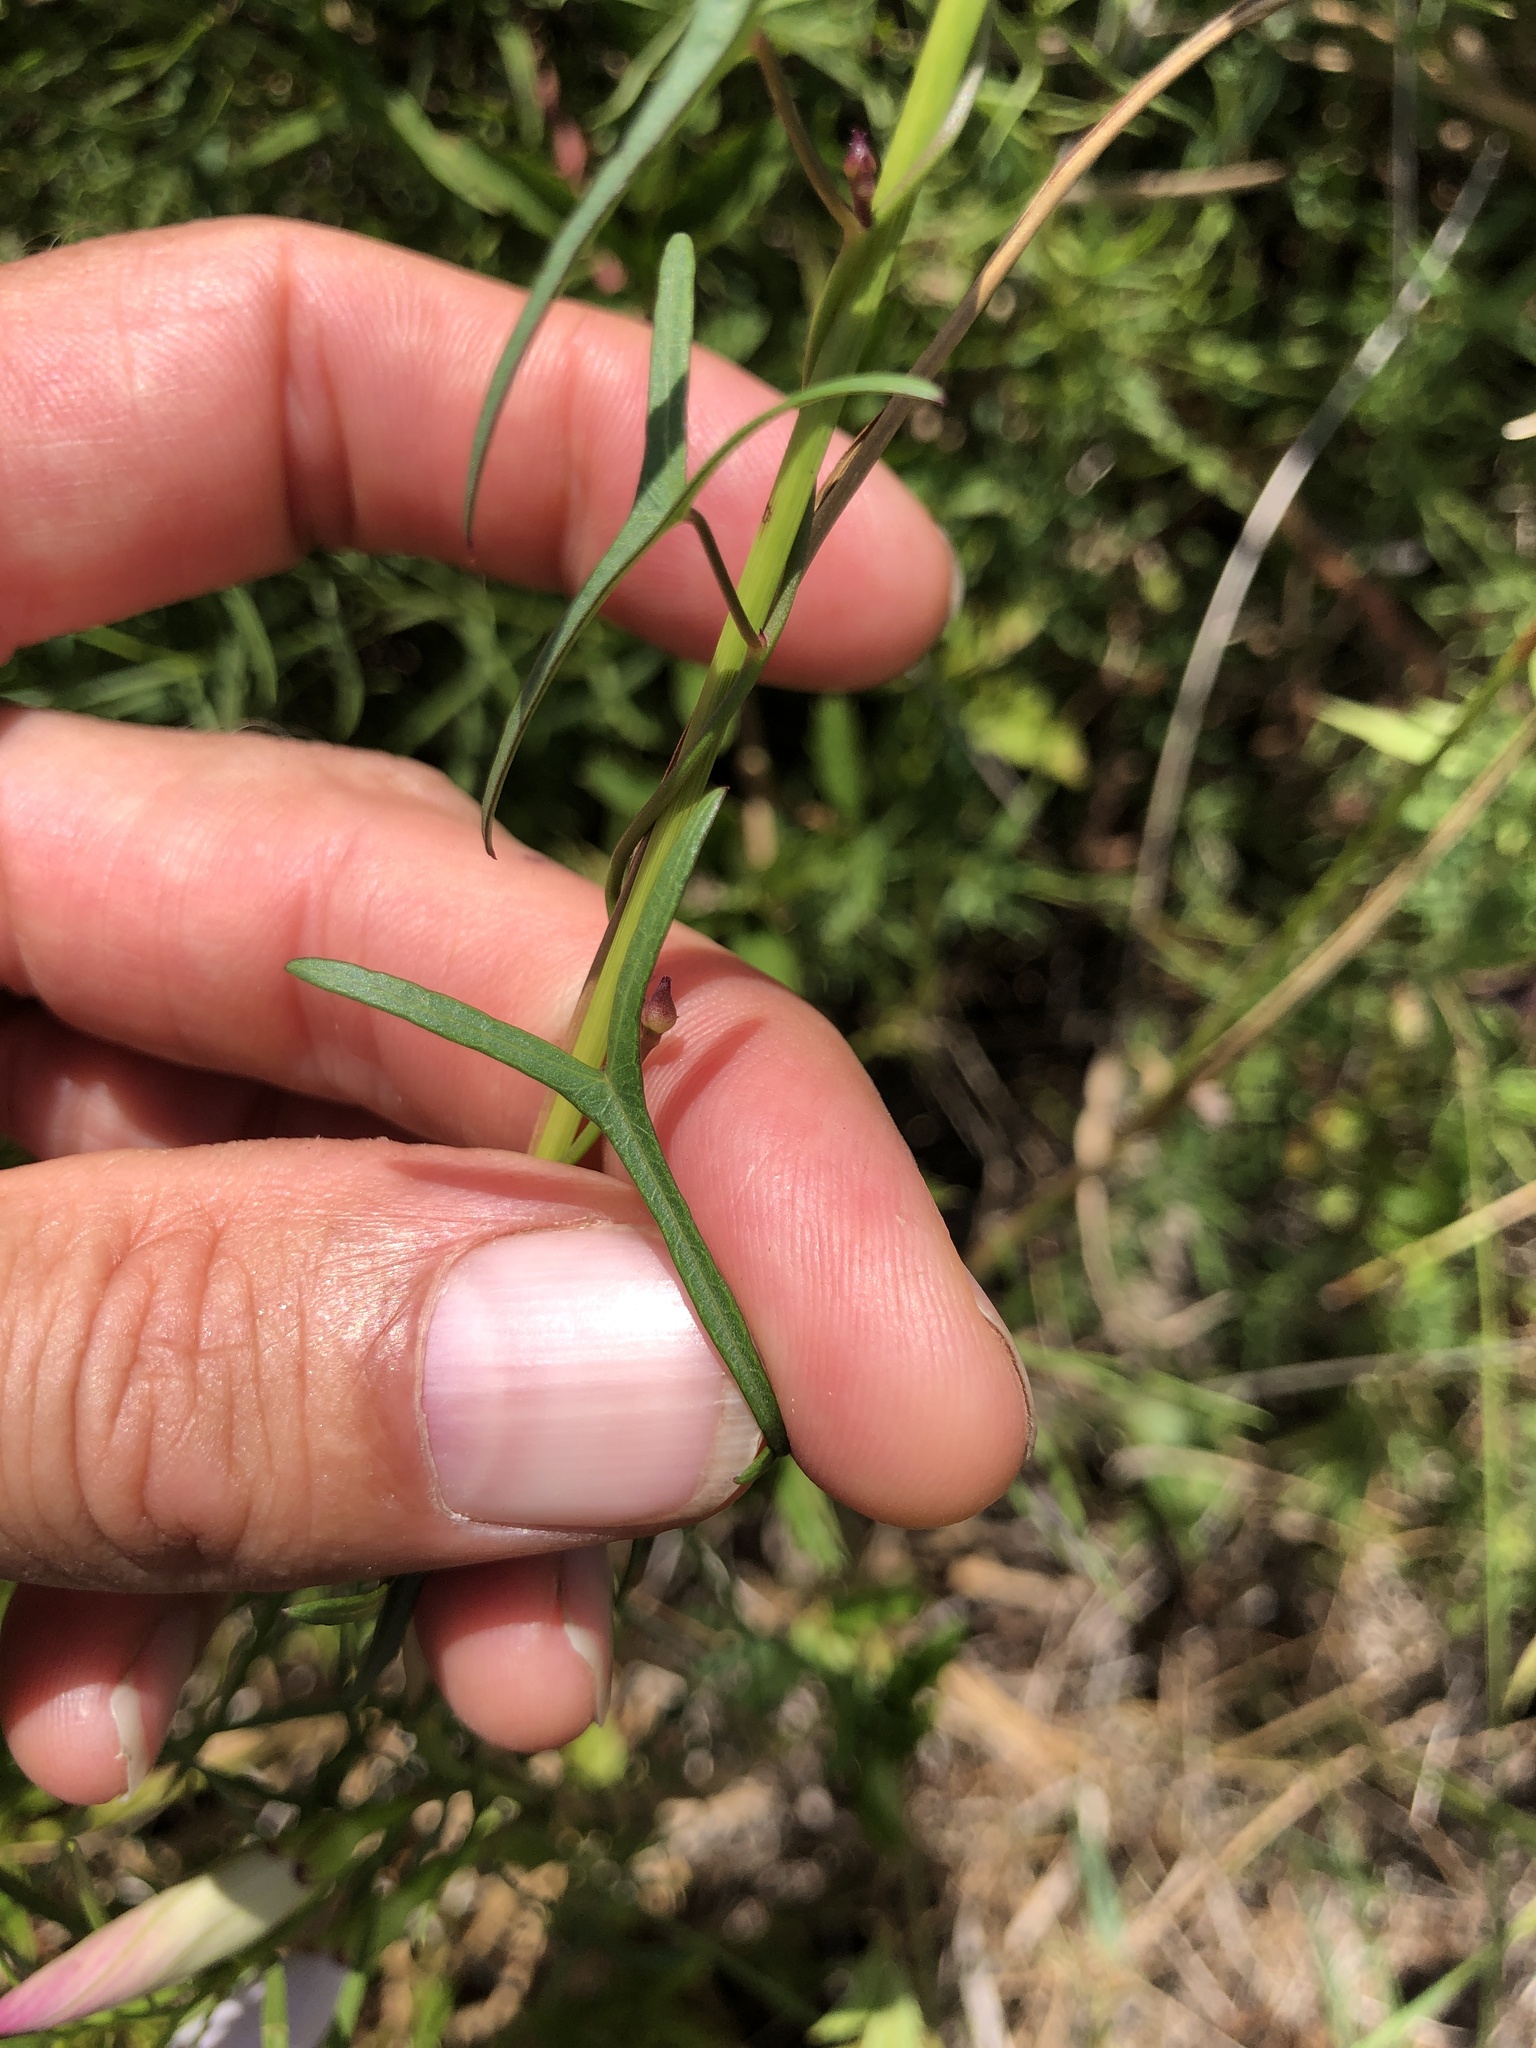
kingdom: Plantae
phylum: Tracheophyta
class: Magnoliopsida
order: Solanales
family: Convolvulaceae
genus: Ipomoea
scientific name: Ipomoea sagittata
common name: Saltmarsh morning glory
